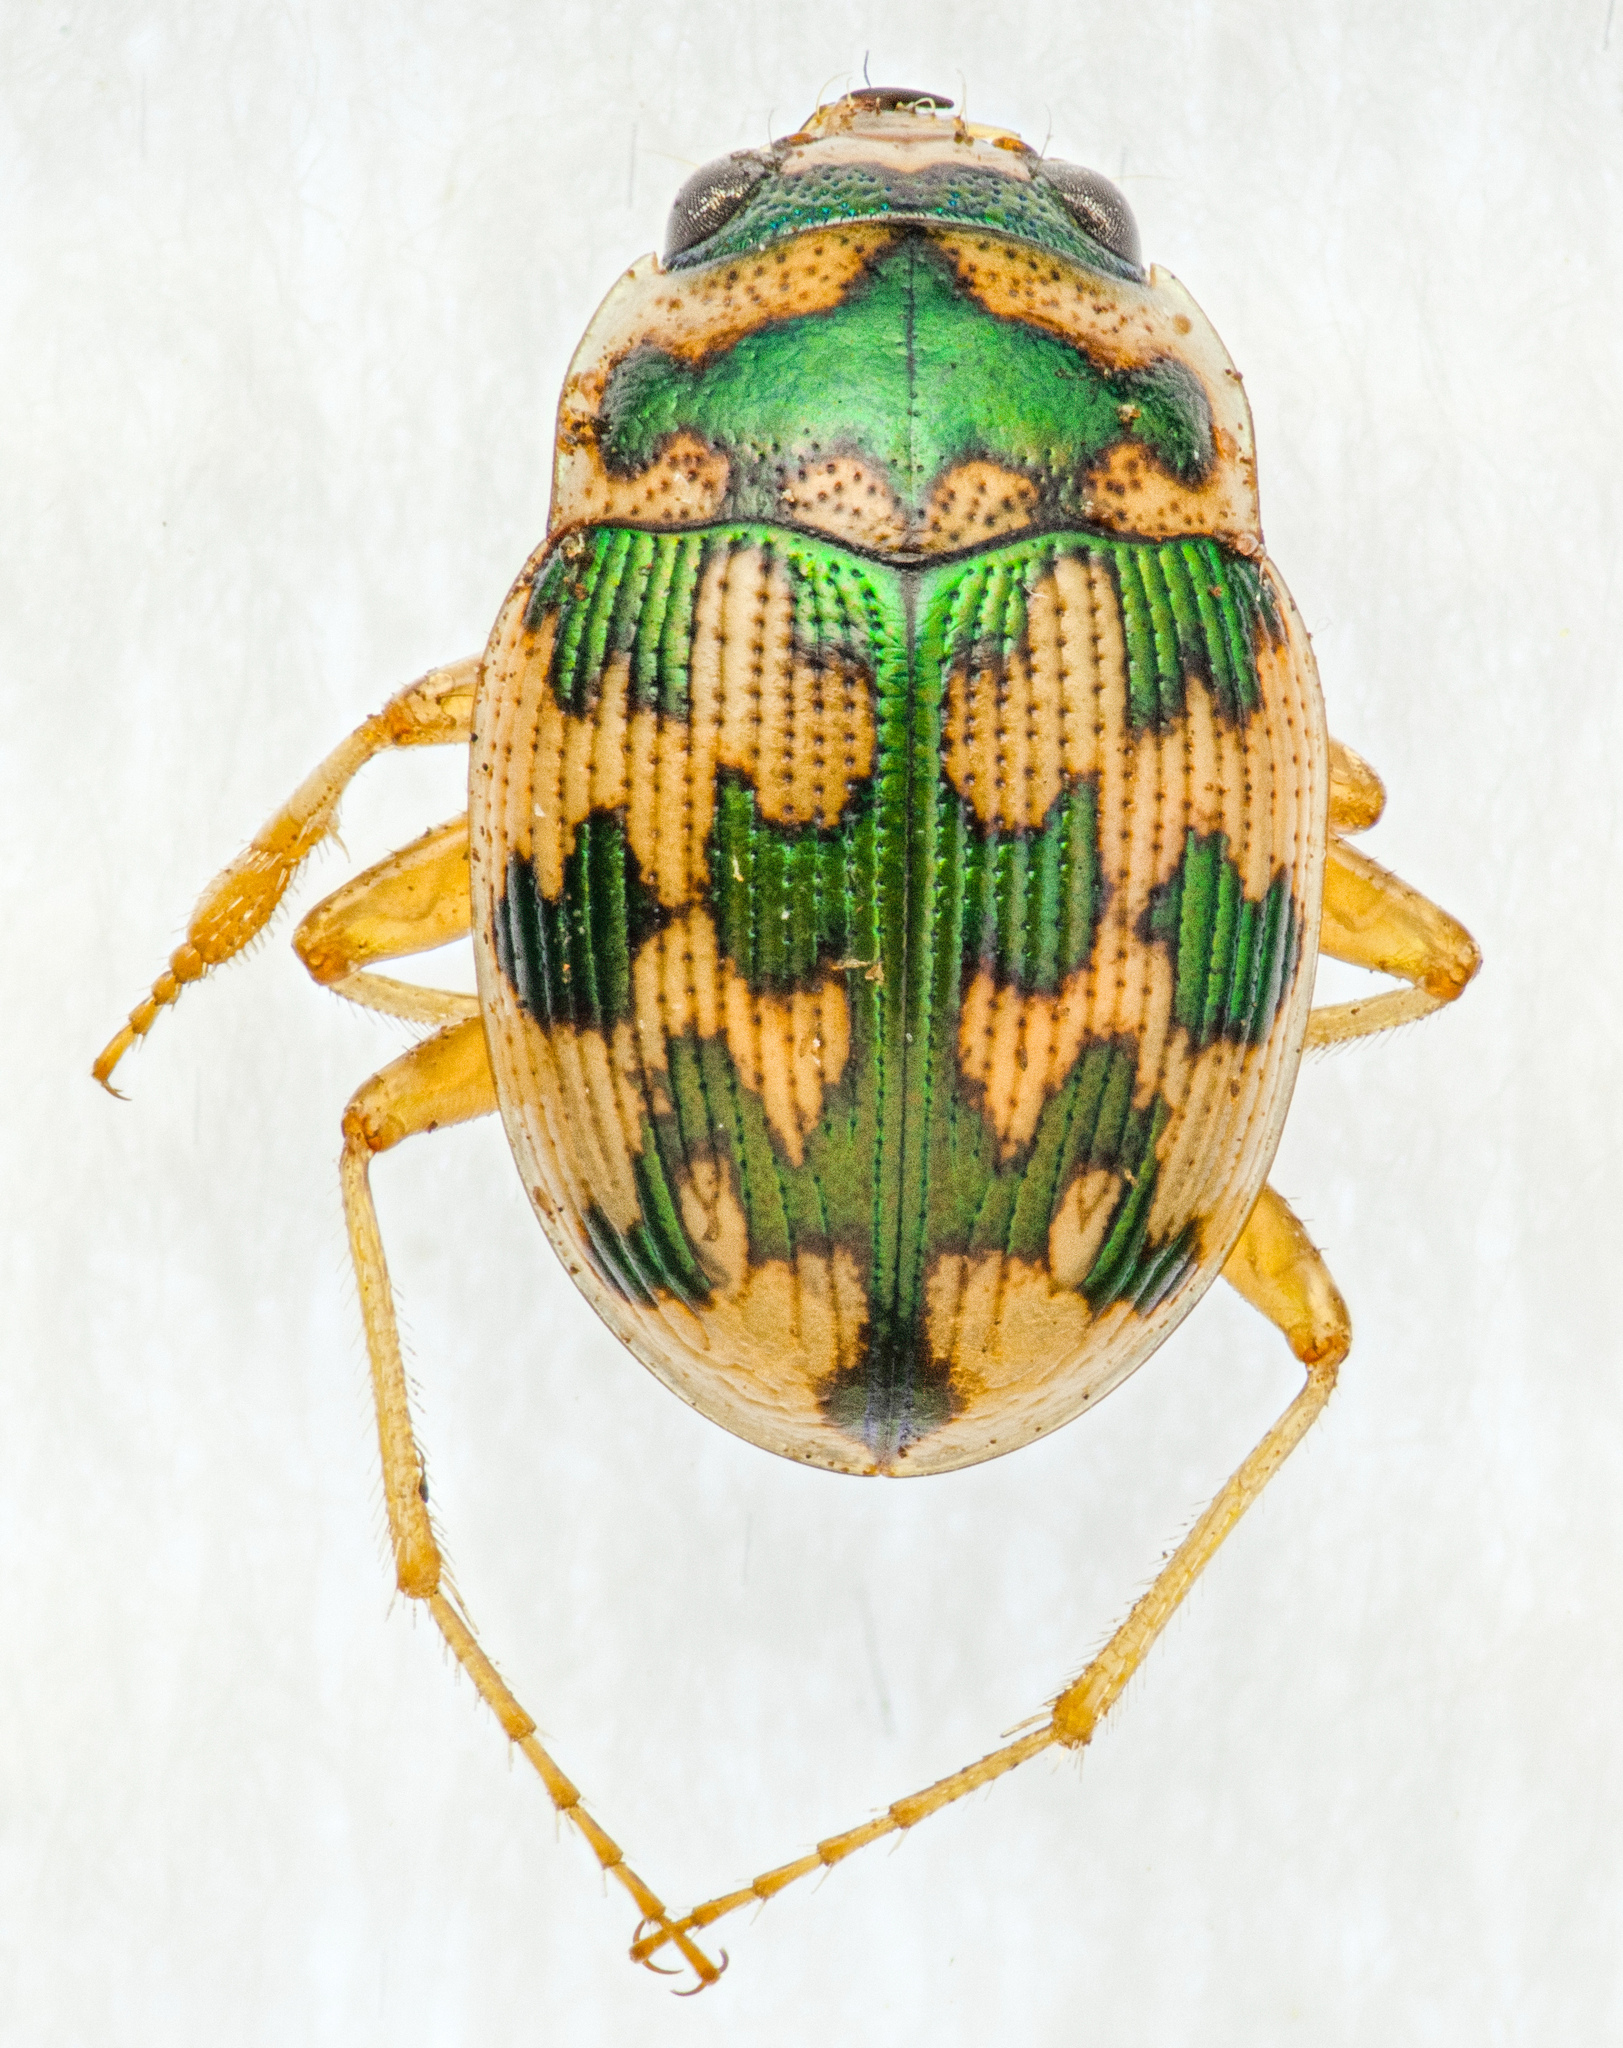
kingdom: Animalia
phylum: Arthropoda
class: Insecta
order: Coleoptera
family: Carabidae
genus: Omophron
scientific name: Omophron dentatum
